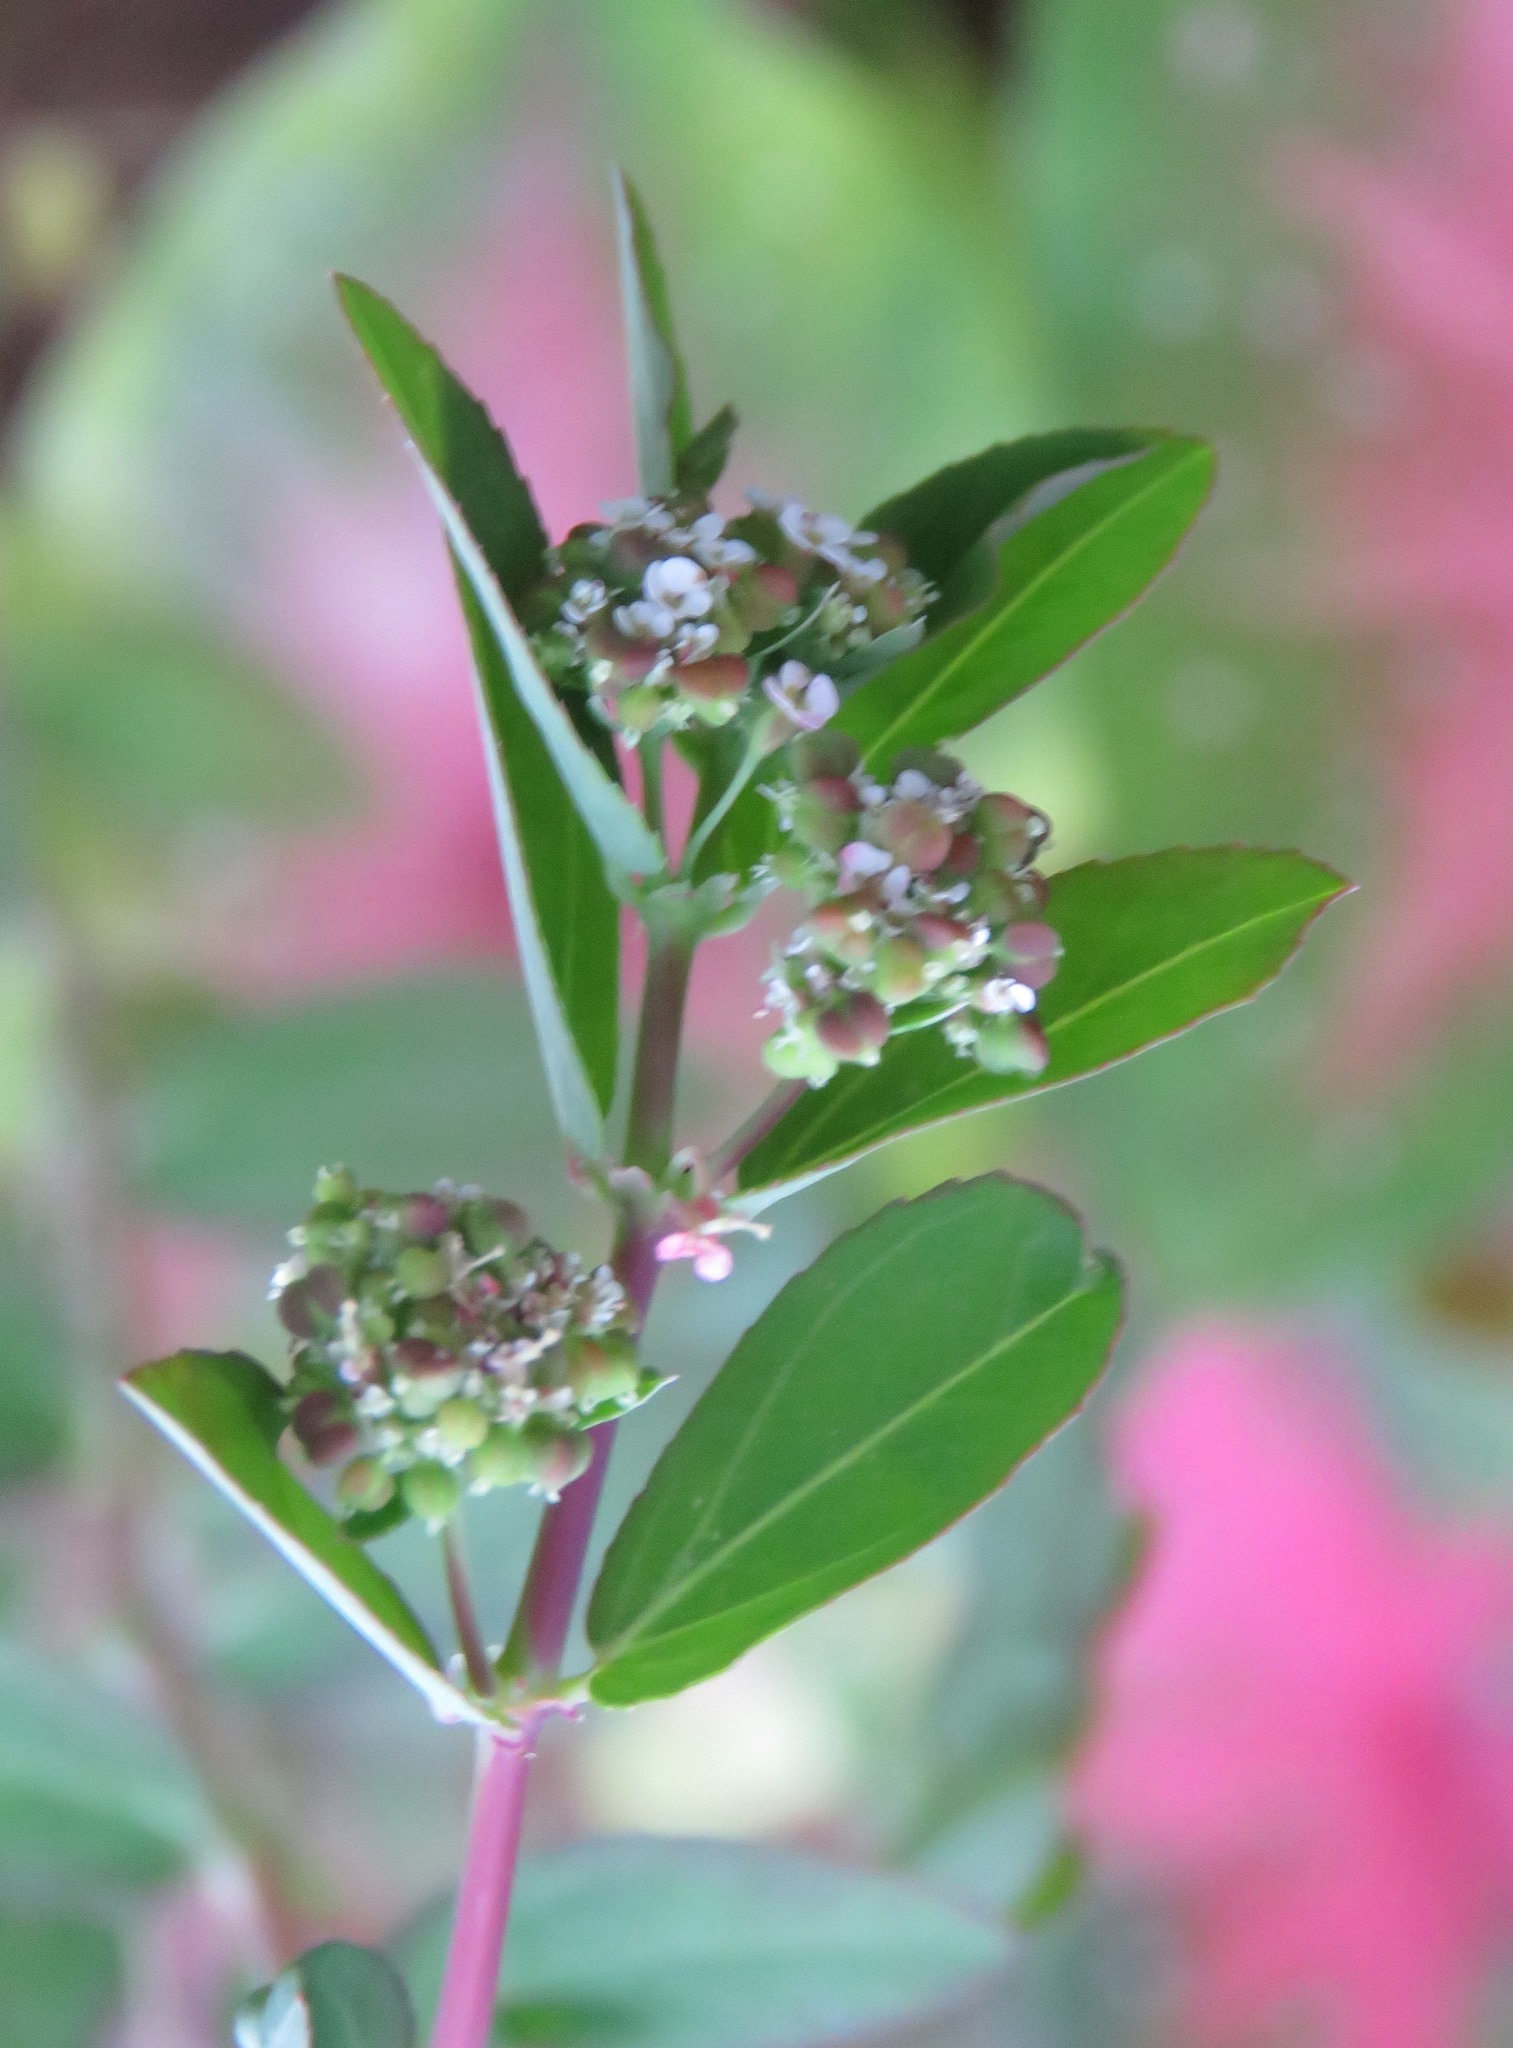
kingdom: Plantae
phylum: Tracheophyta
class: Magnoliopsida
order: Malpighiales
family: Euphorbiaceae
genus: Euphorbia
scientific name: Euphorbia hypericifolia
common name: Graceful sandmat
